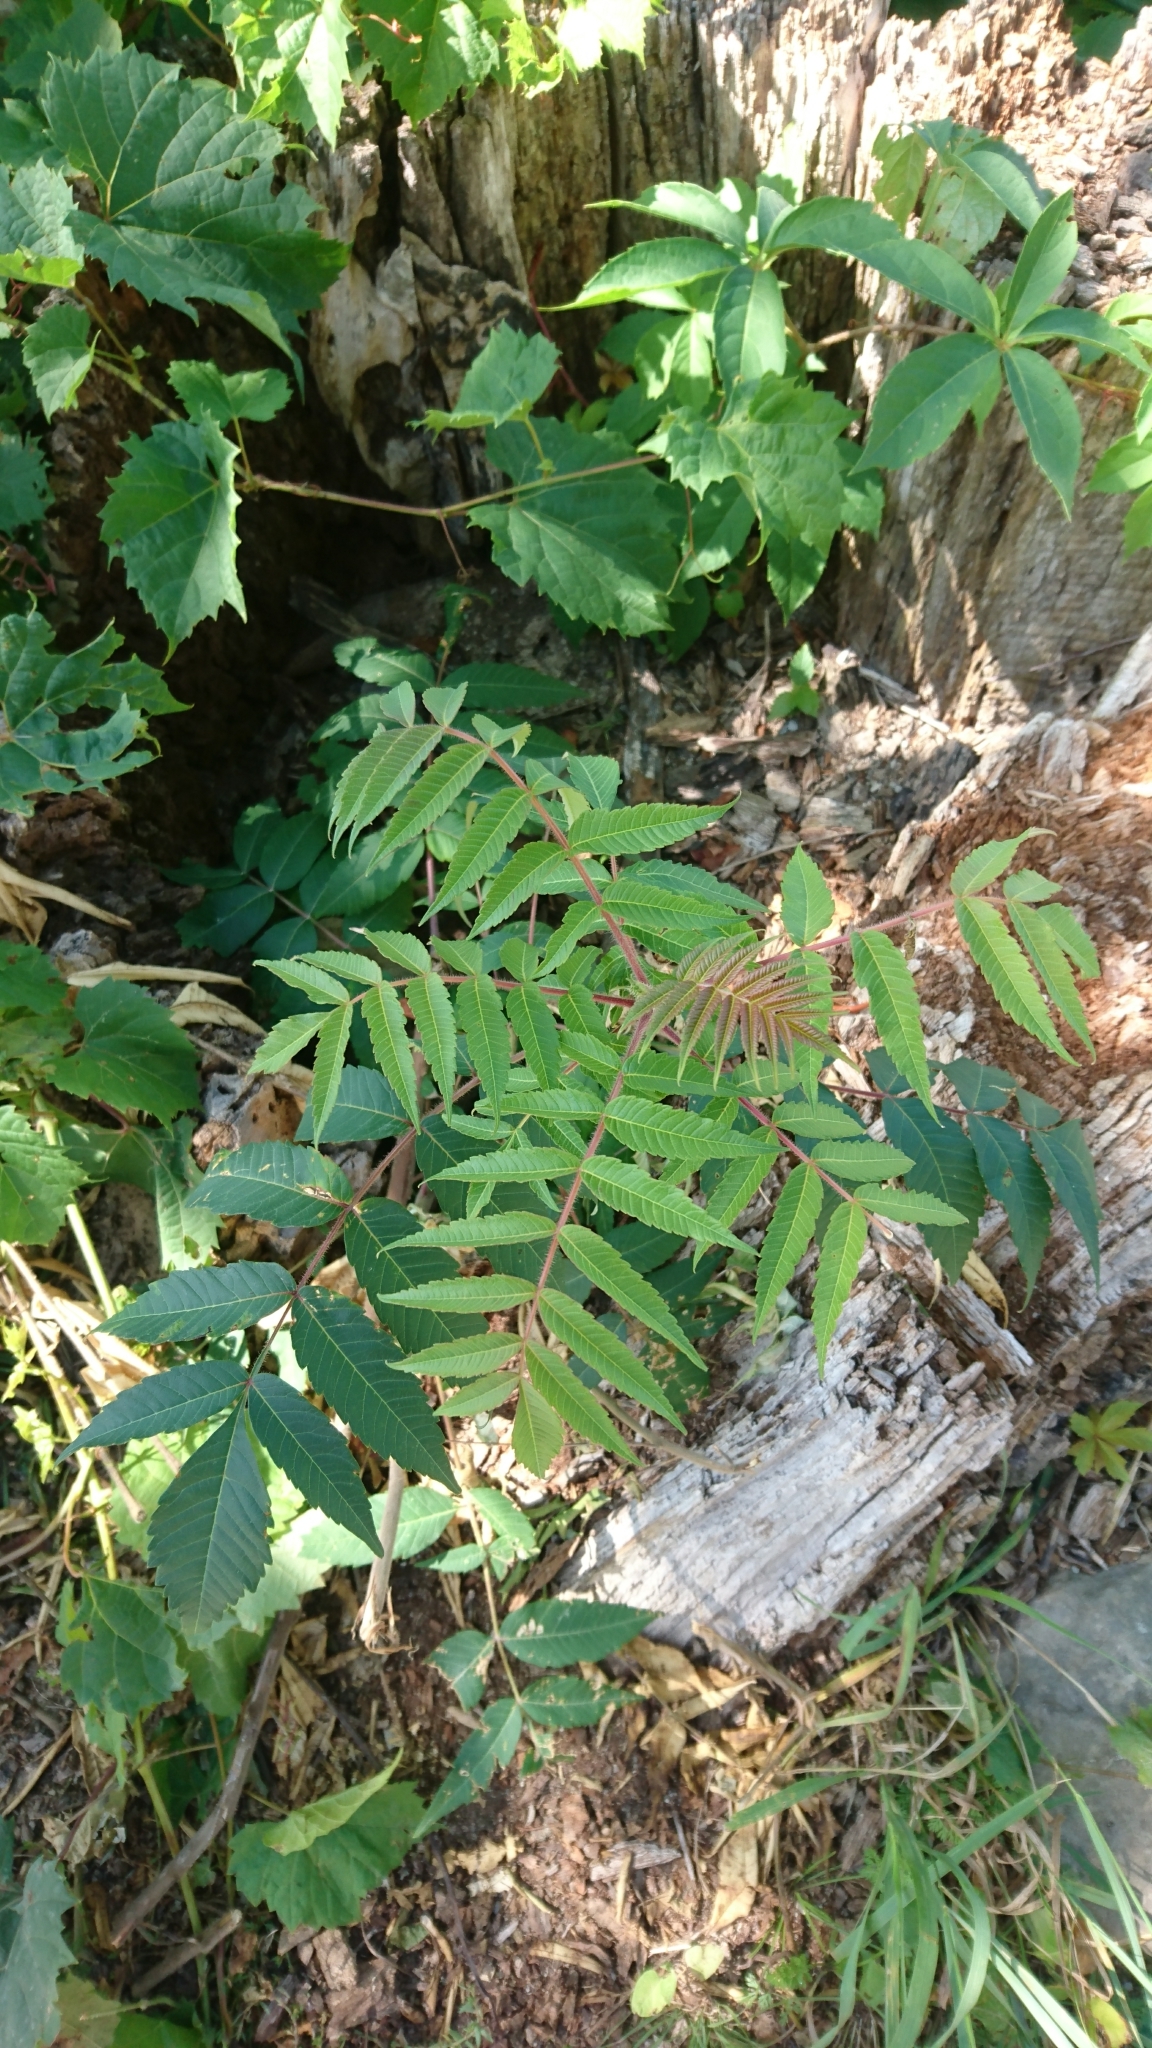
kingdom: Plantae
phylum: Tracheophyta
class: Magnoliopsida
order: Sapindales
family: Anacardiaceae
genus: Rhus
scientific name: Rhus typhina
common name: Staghorn sumac
